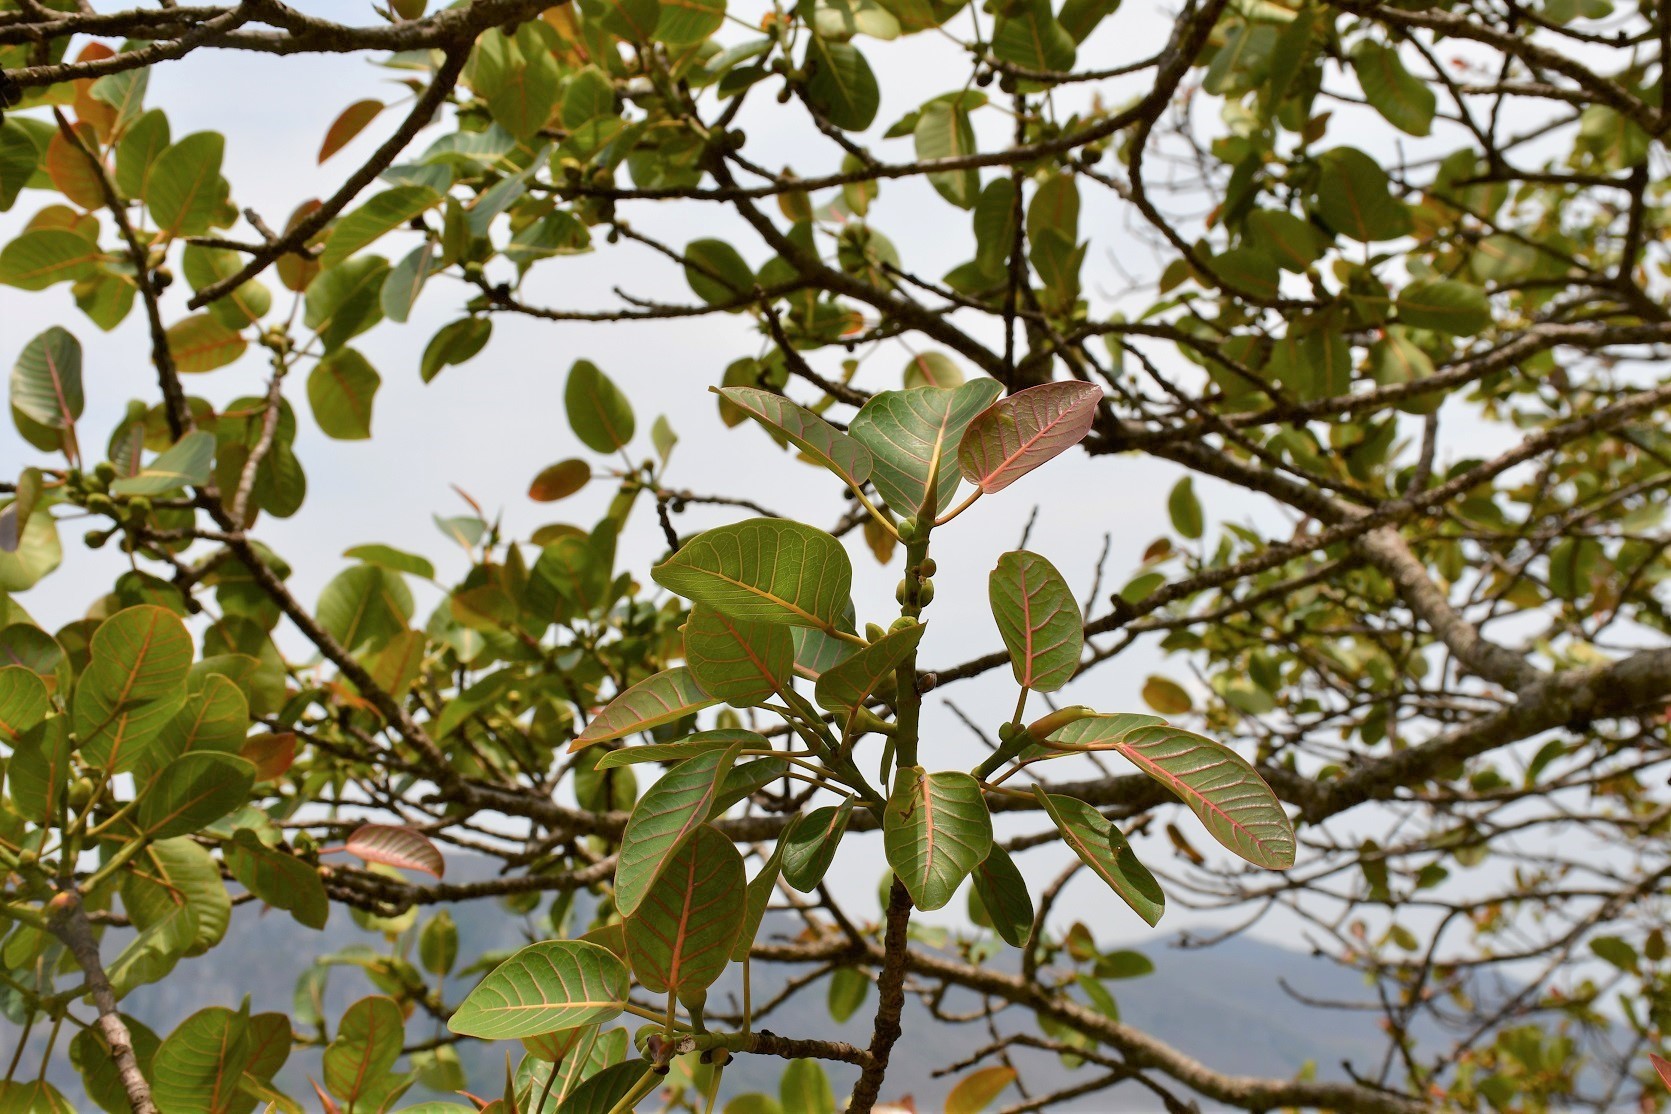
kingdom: Plantae
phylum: Tracheophyta
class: Magnoliopsida
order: Rosales
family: Moraceae
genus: Ficus
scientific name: Ficus aurea
